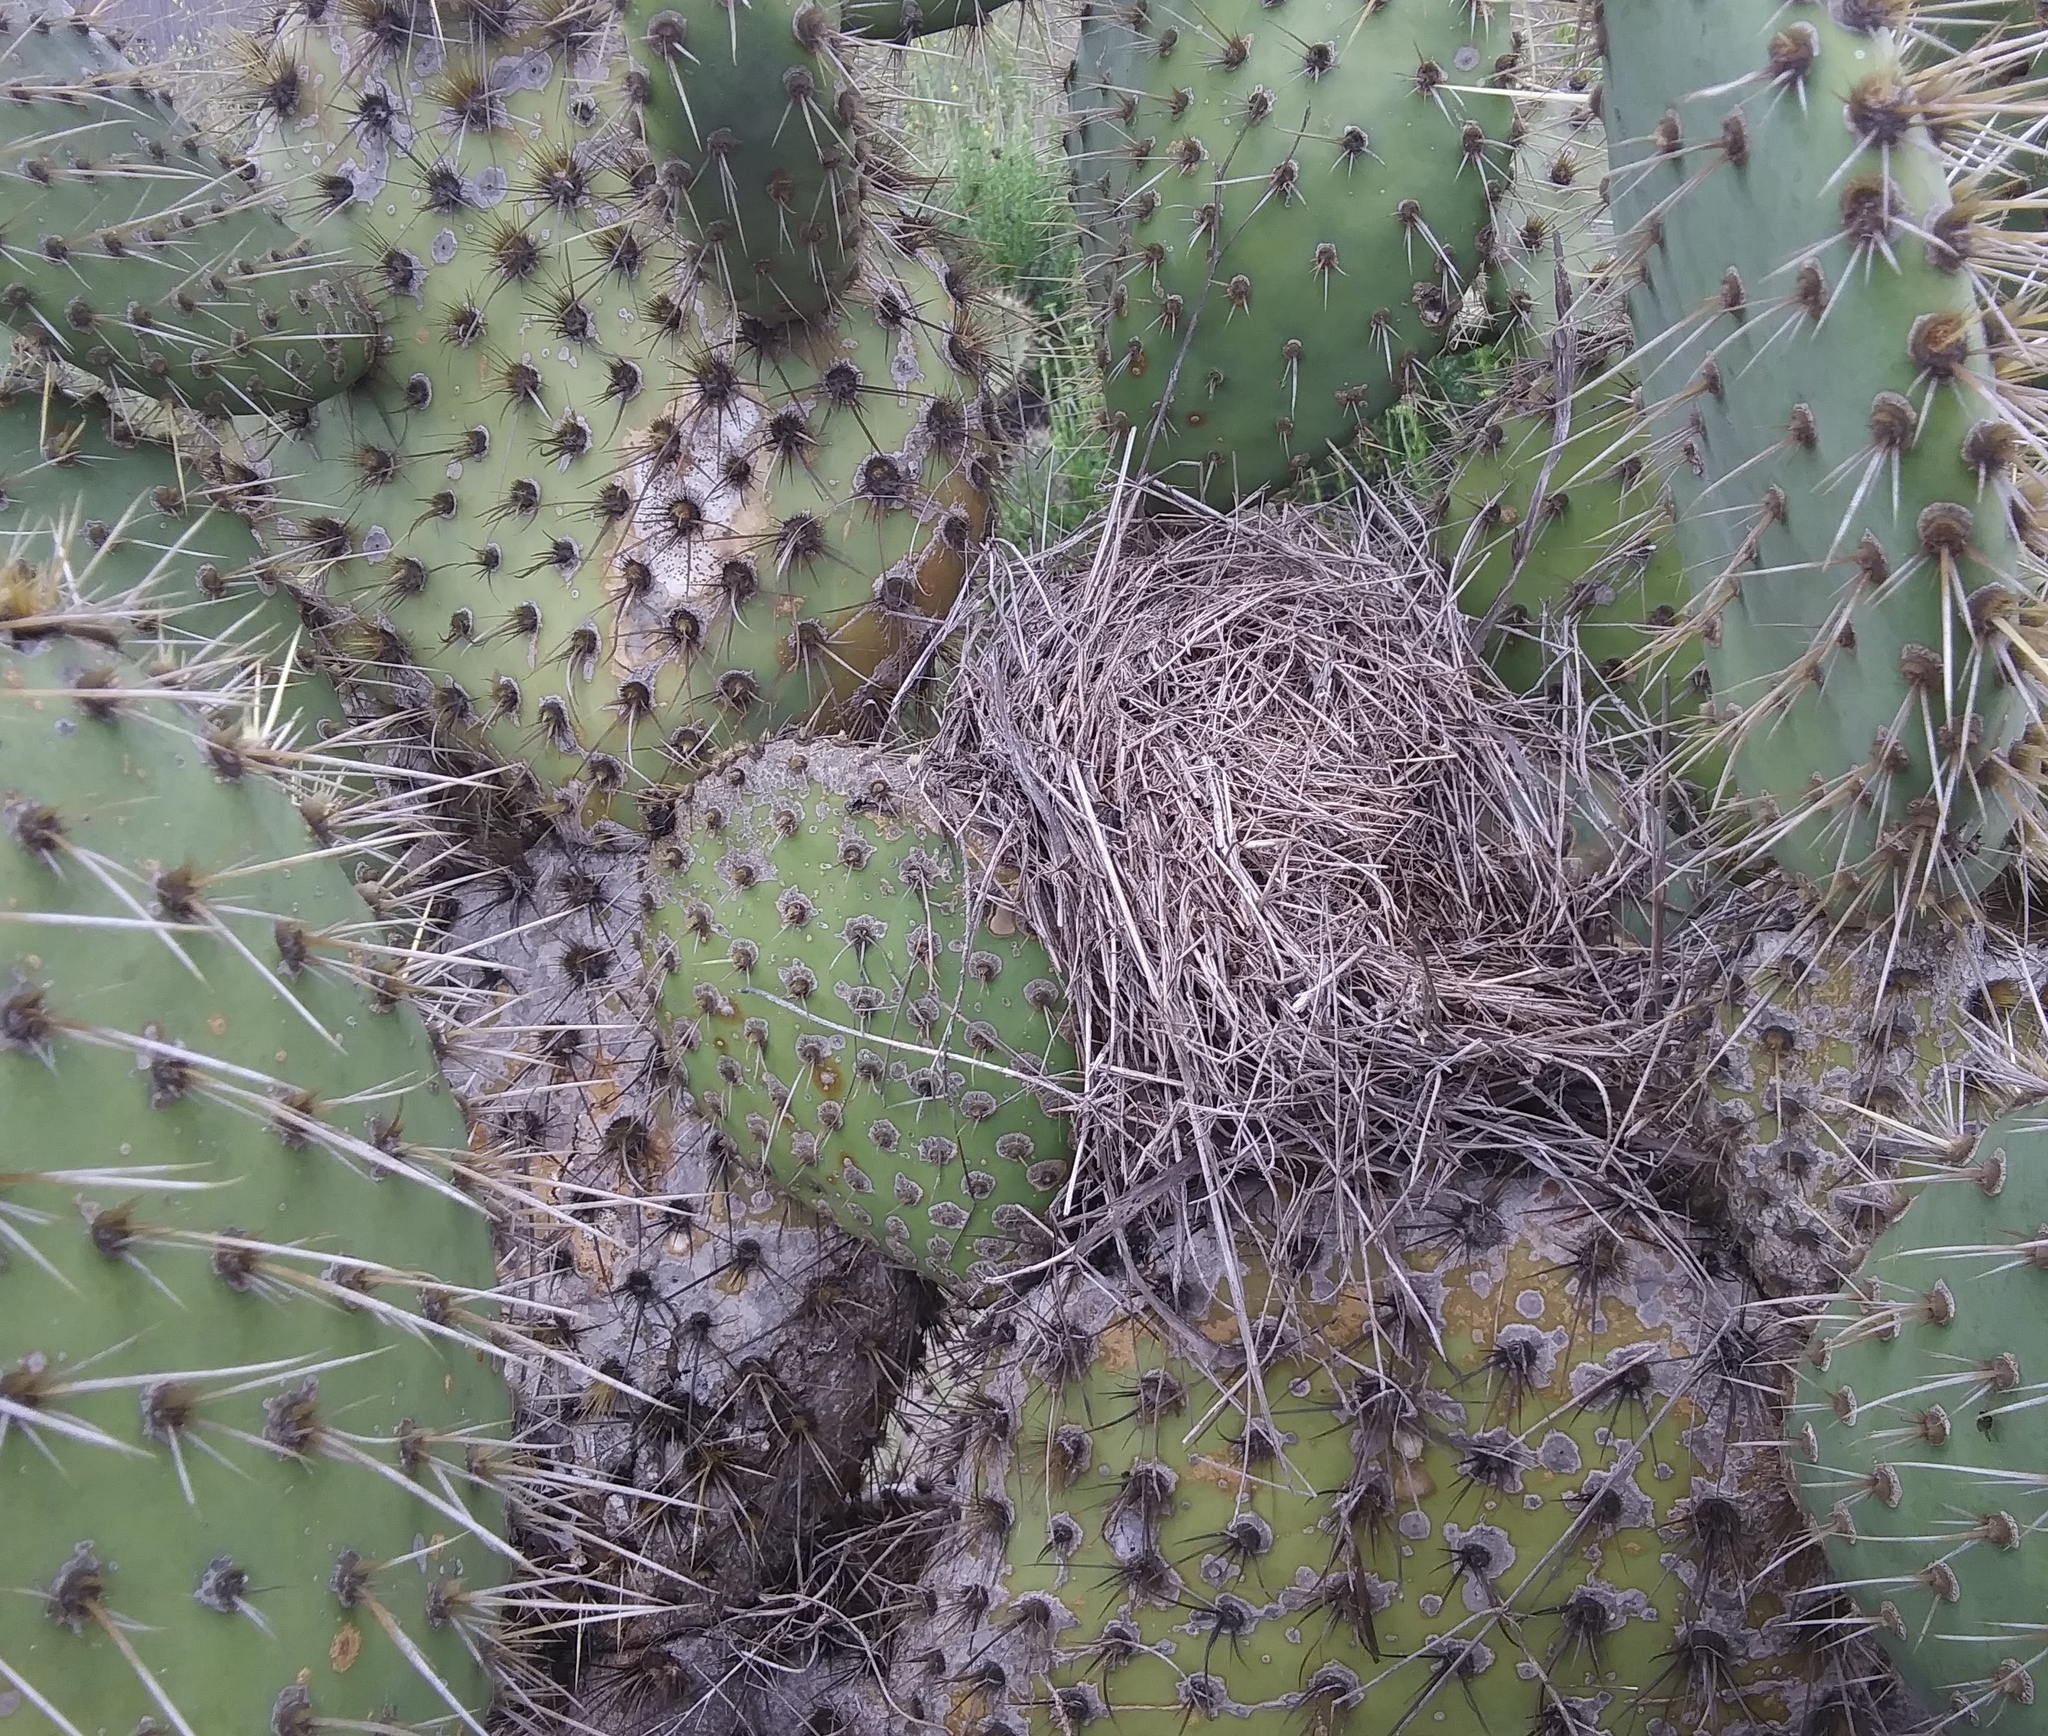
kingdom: Animalia
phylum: Chordata
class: Aves
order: Passeriformes
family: Troglodytidae
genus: Campylorhynchus
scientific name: Campylorhynchus brunneicapillus
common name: Cactus wren
